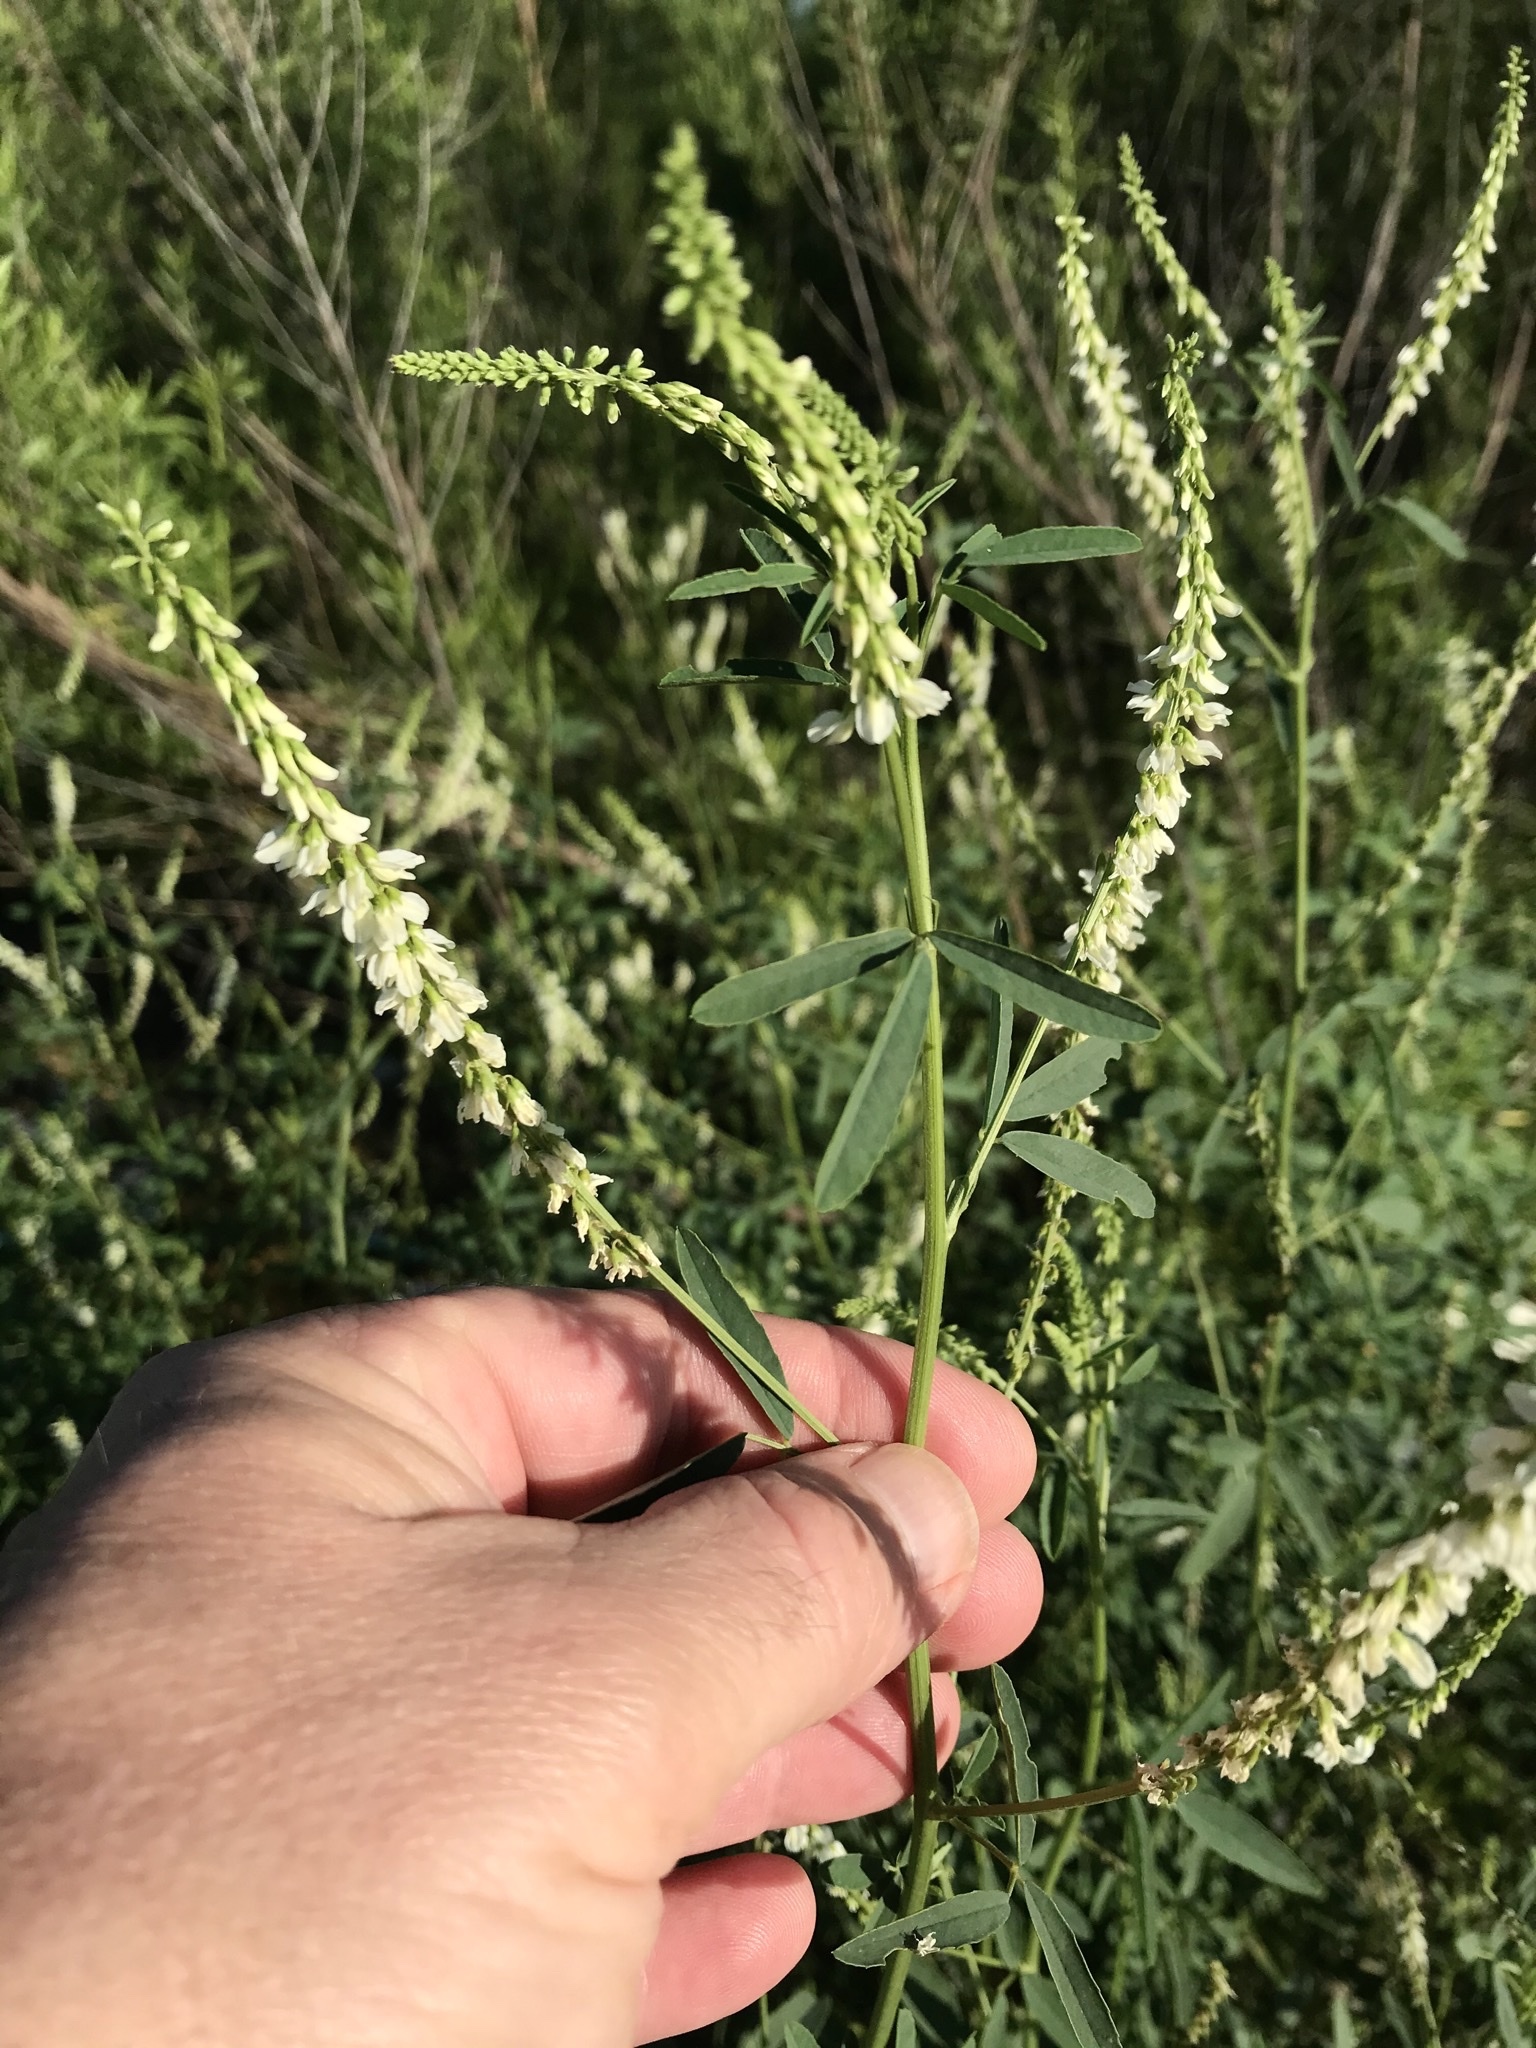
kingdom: Plantae
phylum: Tracheophyta
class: Magnoliopsida
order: Fabales
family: Fabaceae
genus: Melilotus
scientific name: Melilotus albus
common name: White melilot
